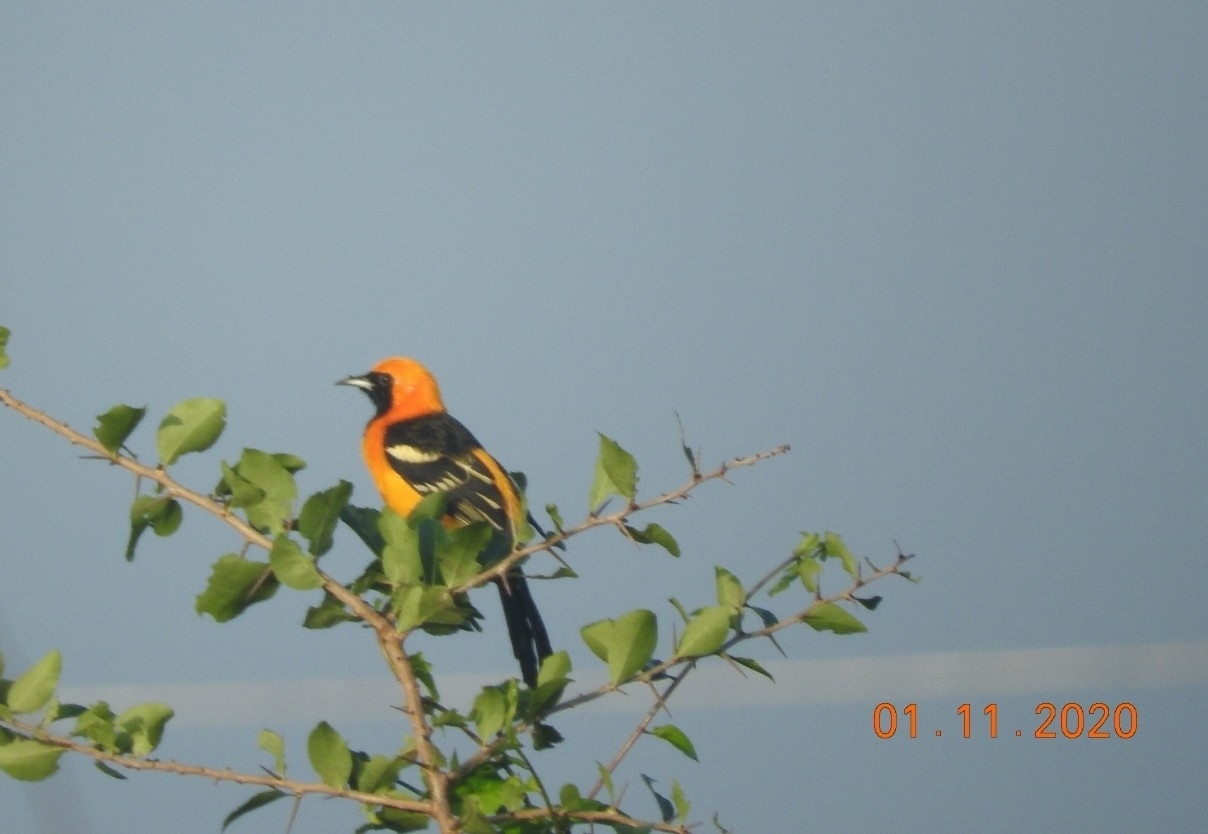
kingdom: Animalia
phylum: Chordata
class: Aves
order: Passeriformes
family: Icteridae
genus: Icterus
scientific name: Icterus cucullatus
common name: Hooded oriole
